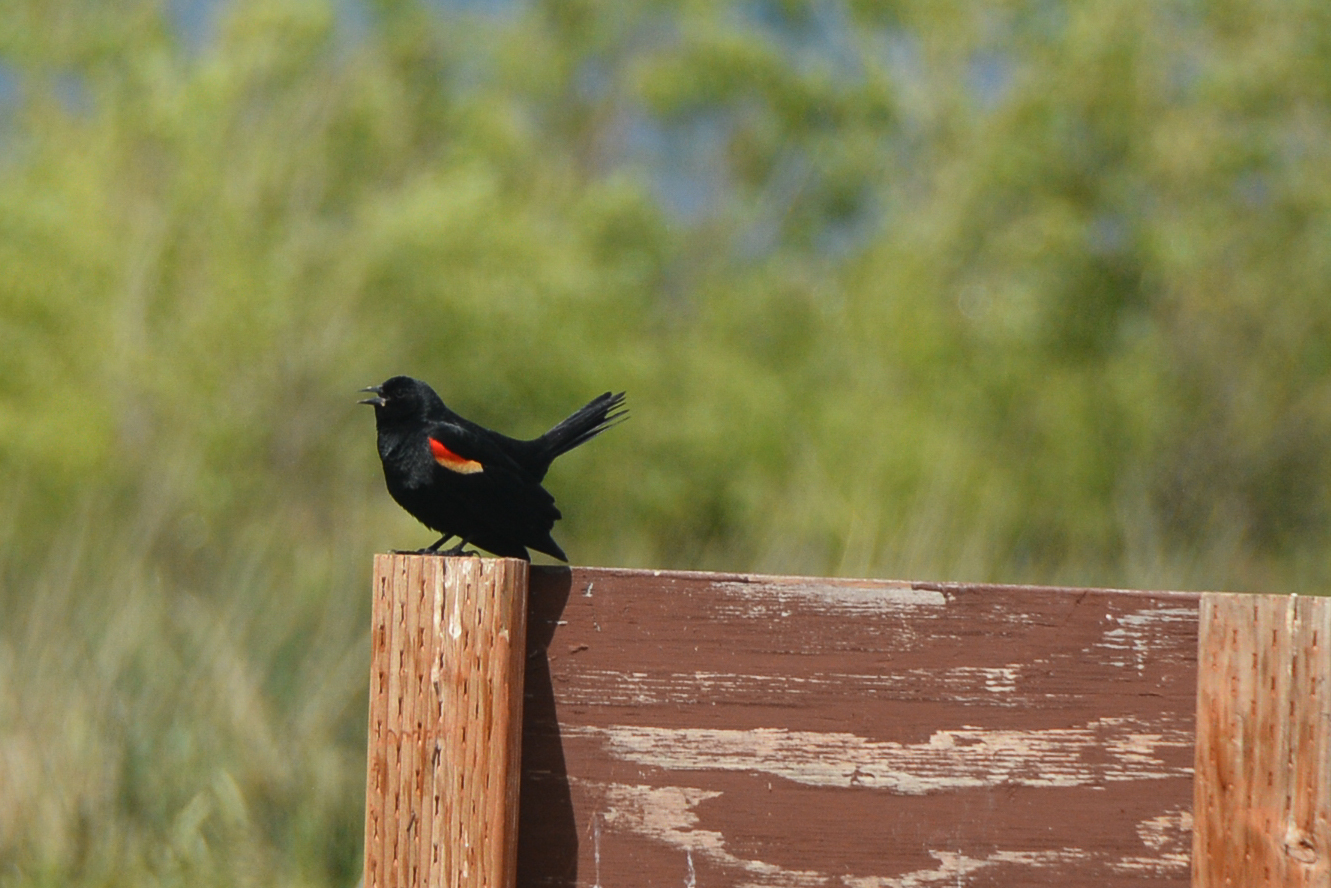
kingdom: Animalia
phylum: Chordata
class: Aves
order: Passeriformes
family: Icteridae
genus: Agelaius
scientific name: Agelaius phoeniceus
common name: Red-winged blackbird
